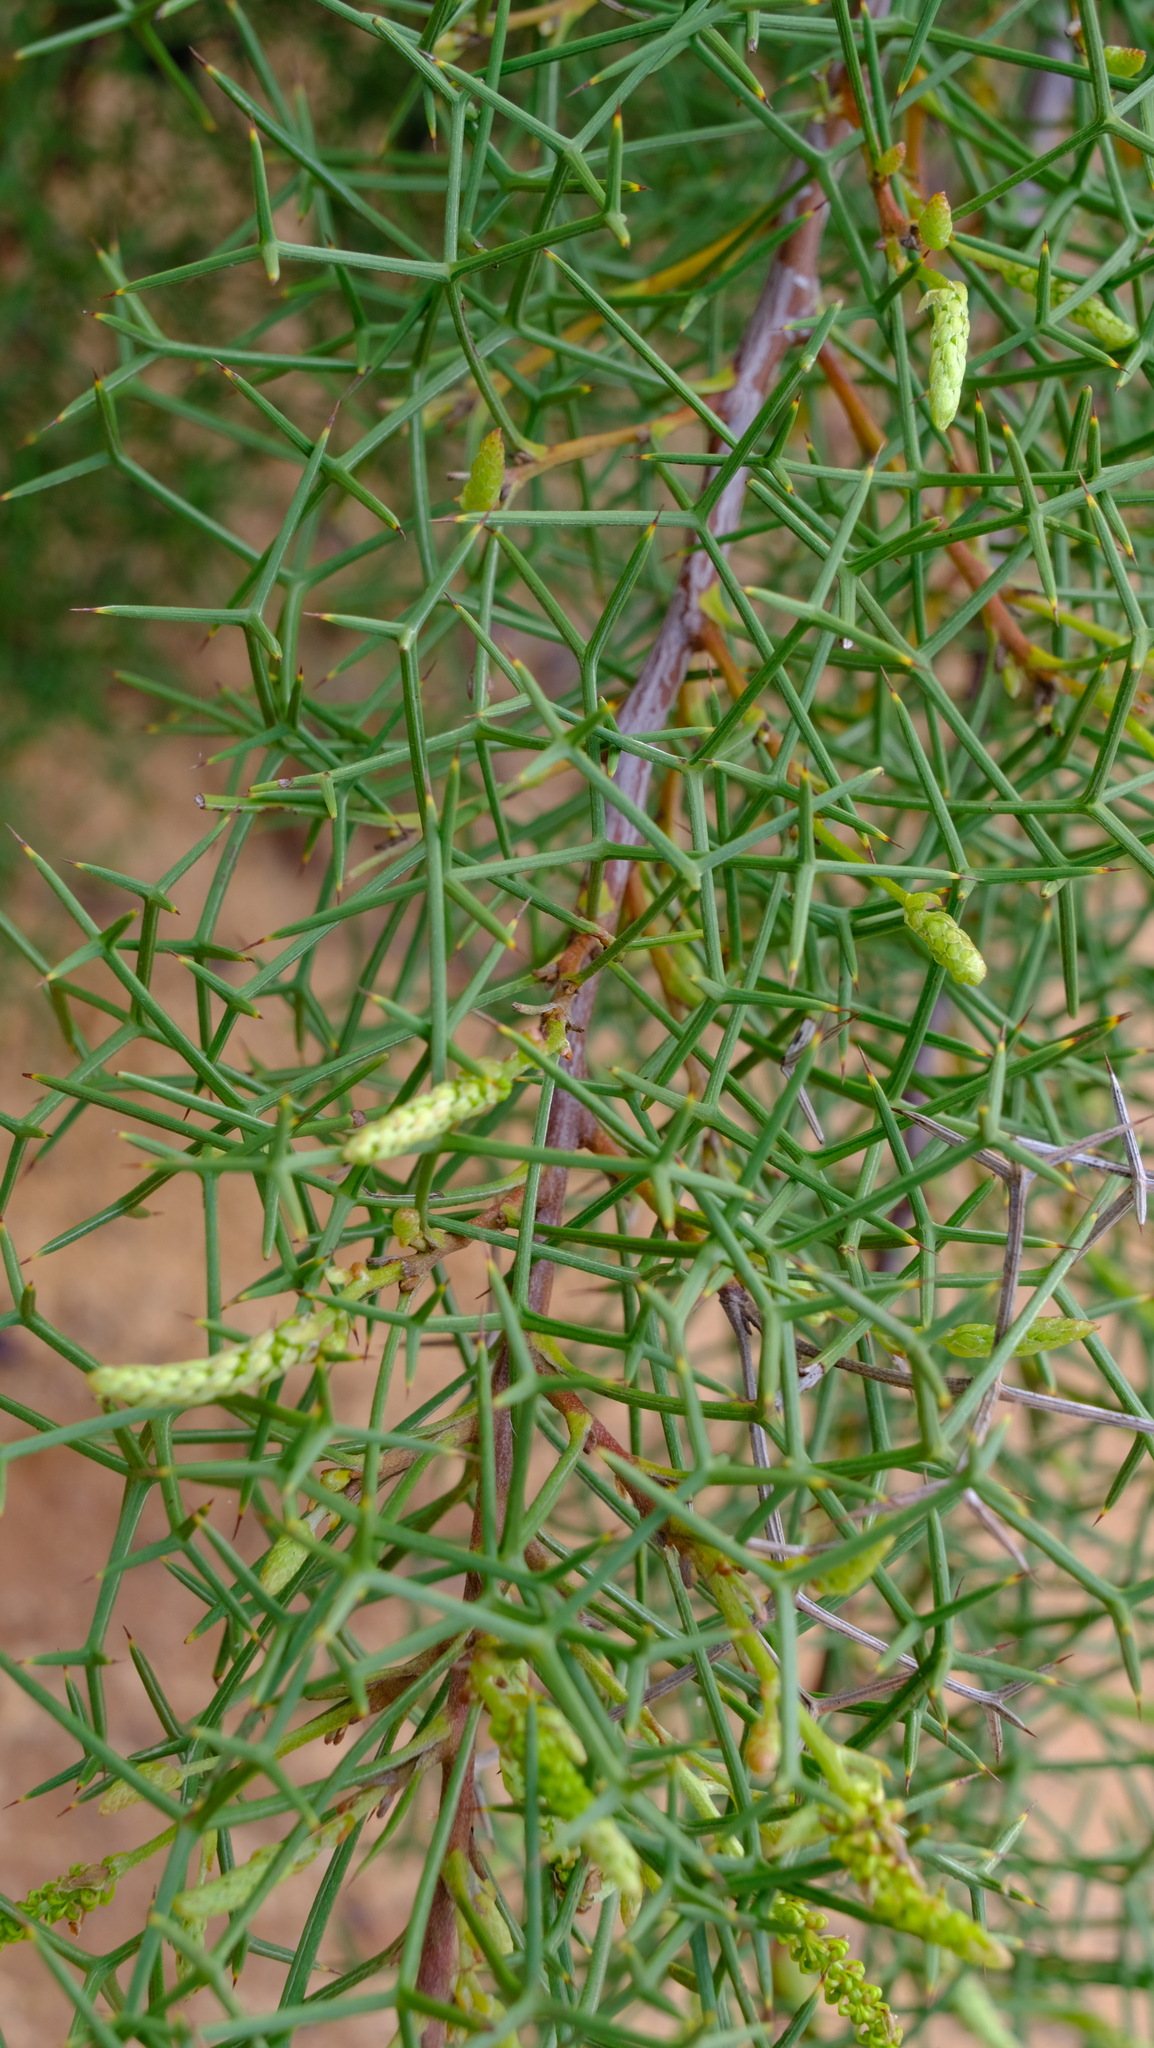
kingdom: Plantae
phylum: Tracheophyta
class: Magnoliopsida
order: Proteales
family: Proteaceae
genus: Grevillea
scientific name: Grevillea leptopoda
